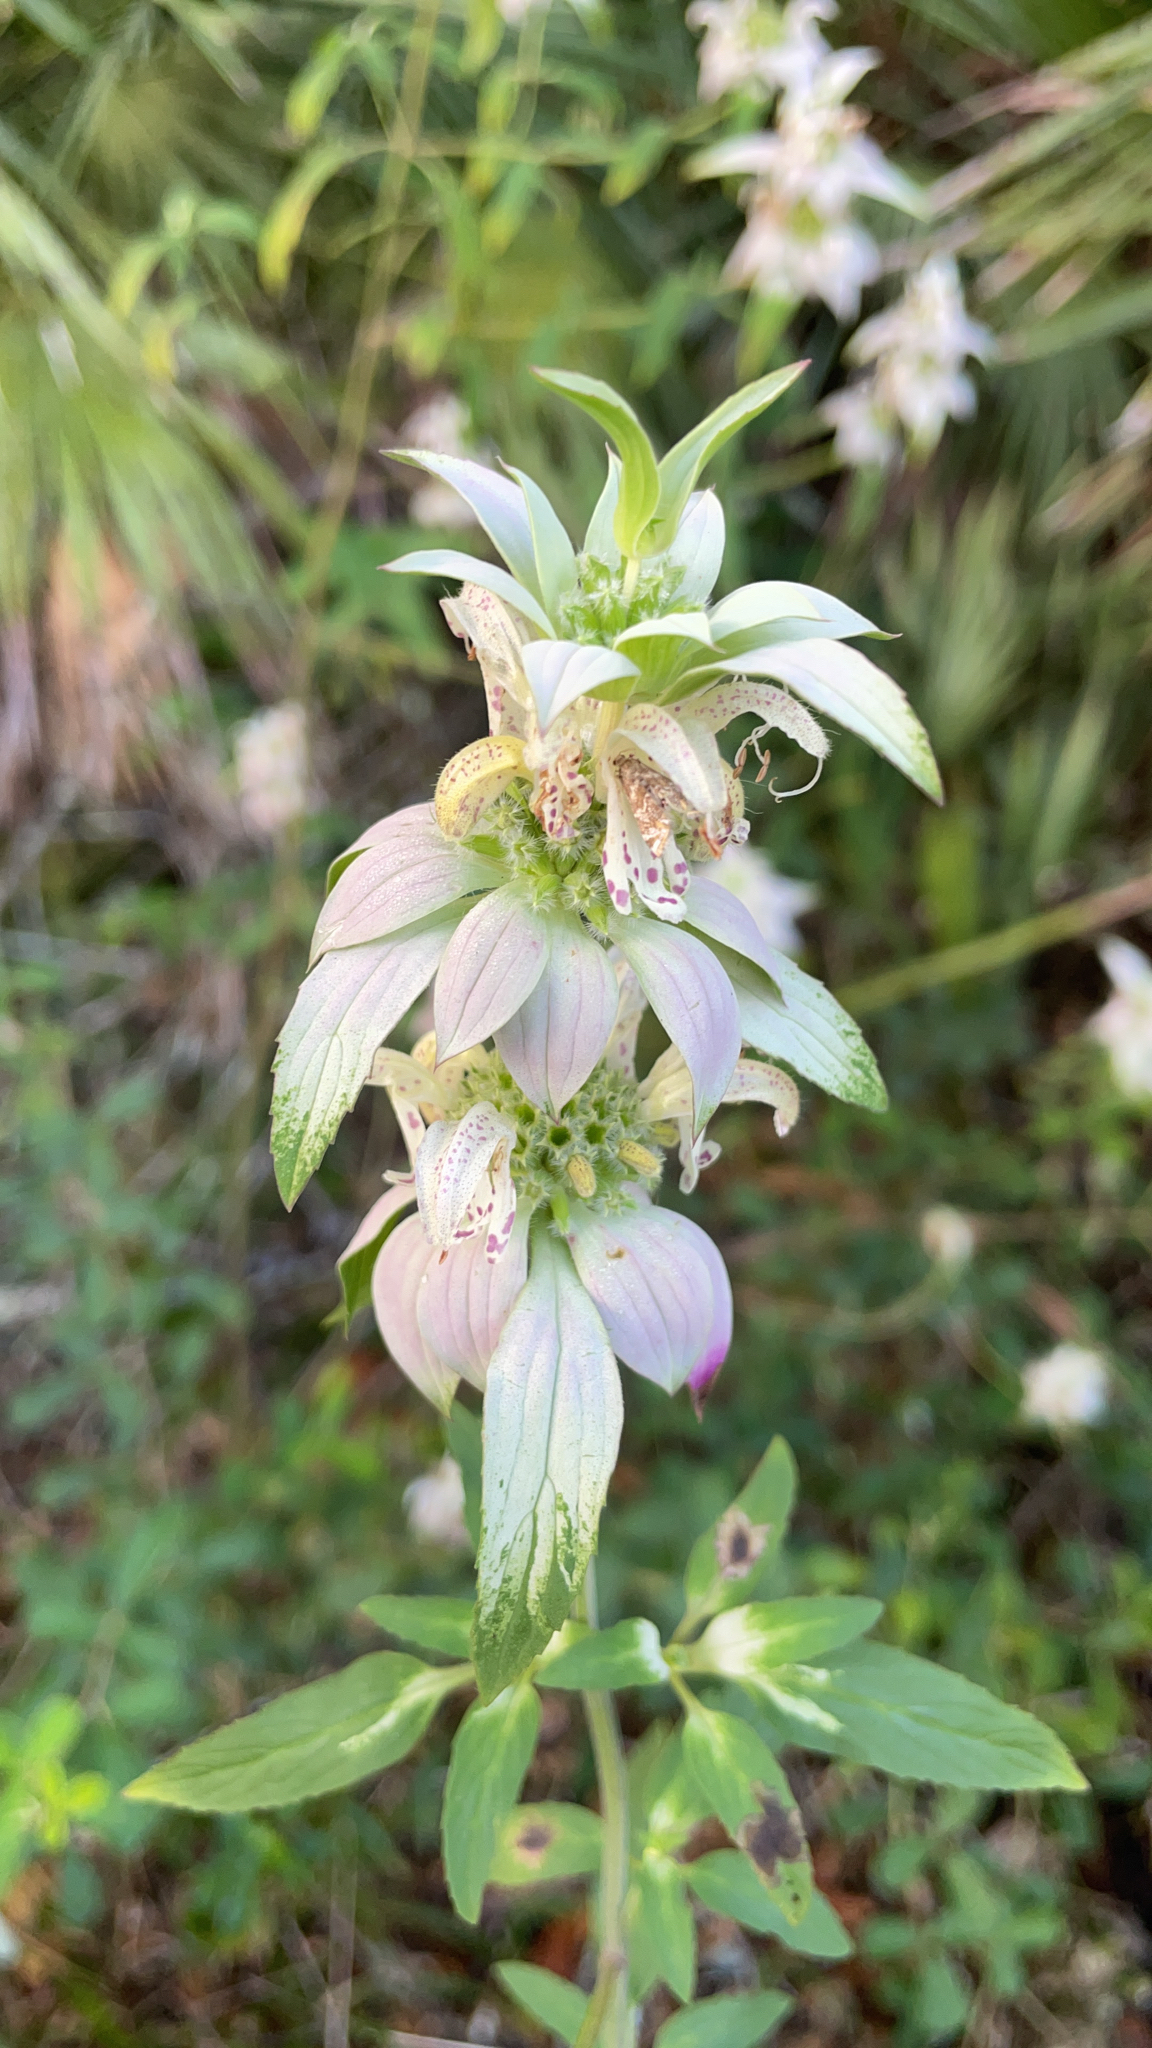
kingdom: Plantae
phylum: Tracheophyta
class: Magnoliopsida
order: Lamiales
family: Lamiaceae
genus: Monarda
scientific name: Monarda punctata
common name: Dotted monarda
